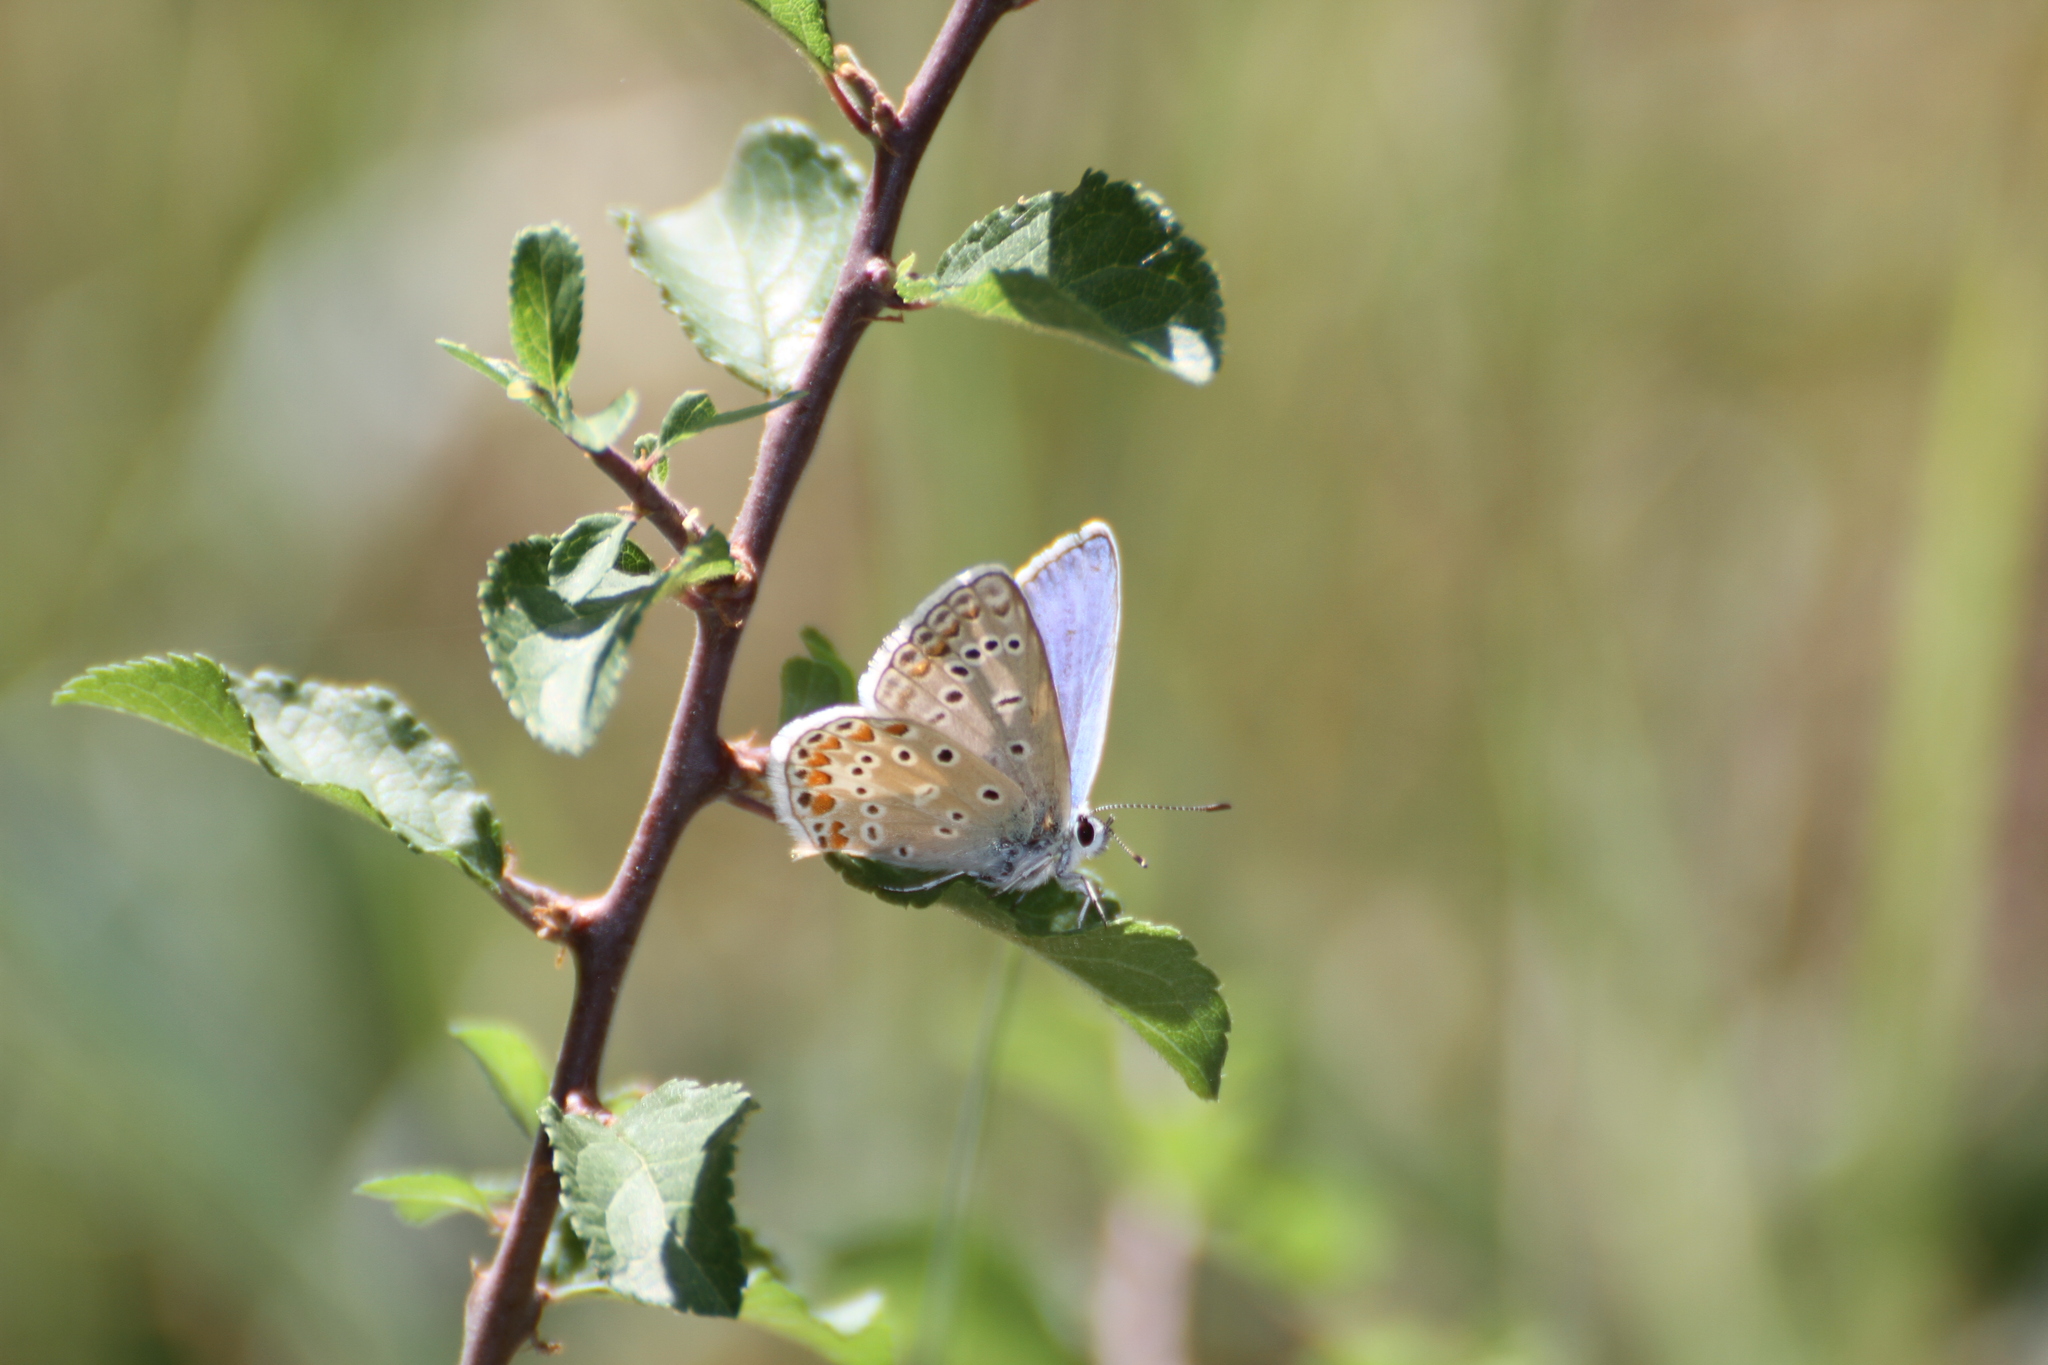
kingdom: Animalia
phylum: Arthropoda
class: Insecta
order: Lepidoptera
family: Lycaenidae
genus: Polyommatus
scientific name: Polyommatus icarus
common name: Common blue
